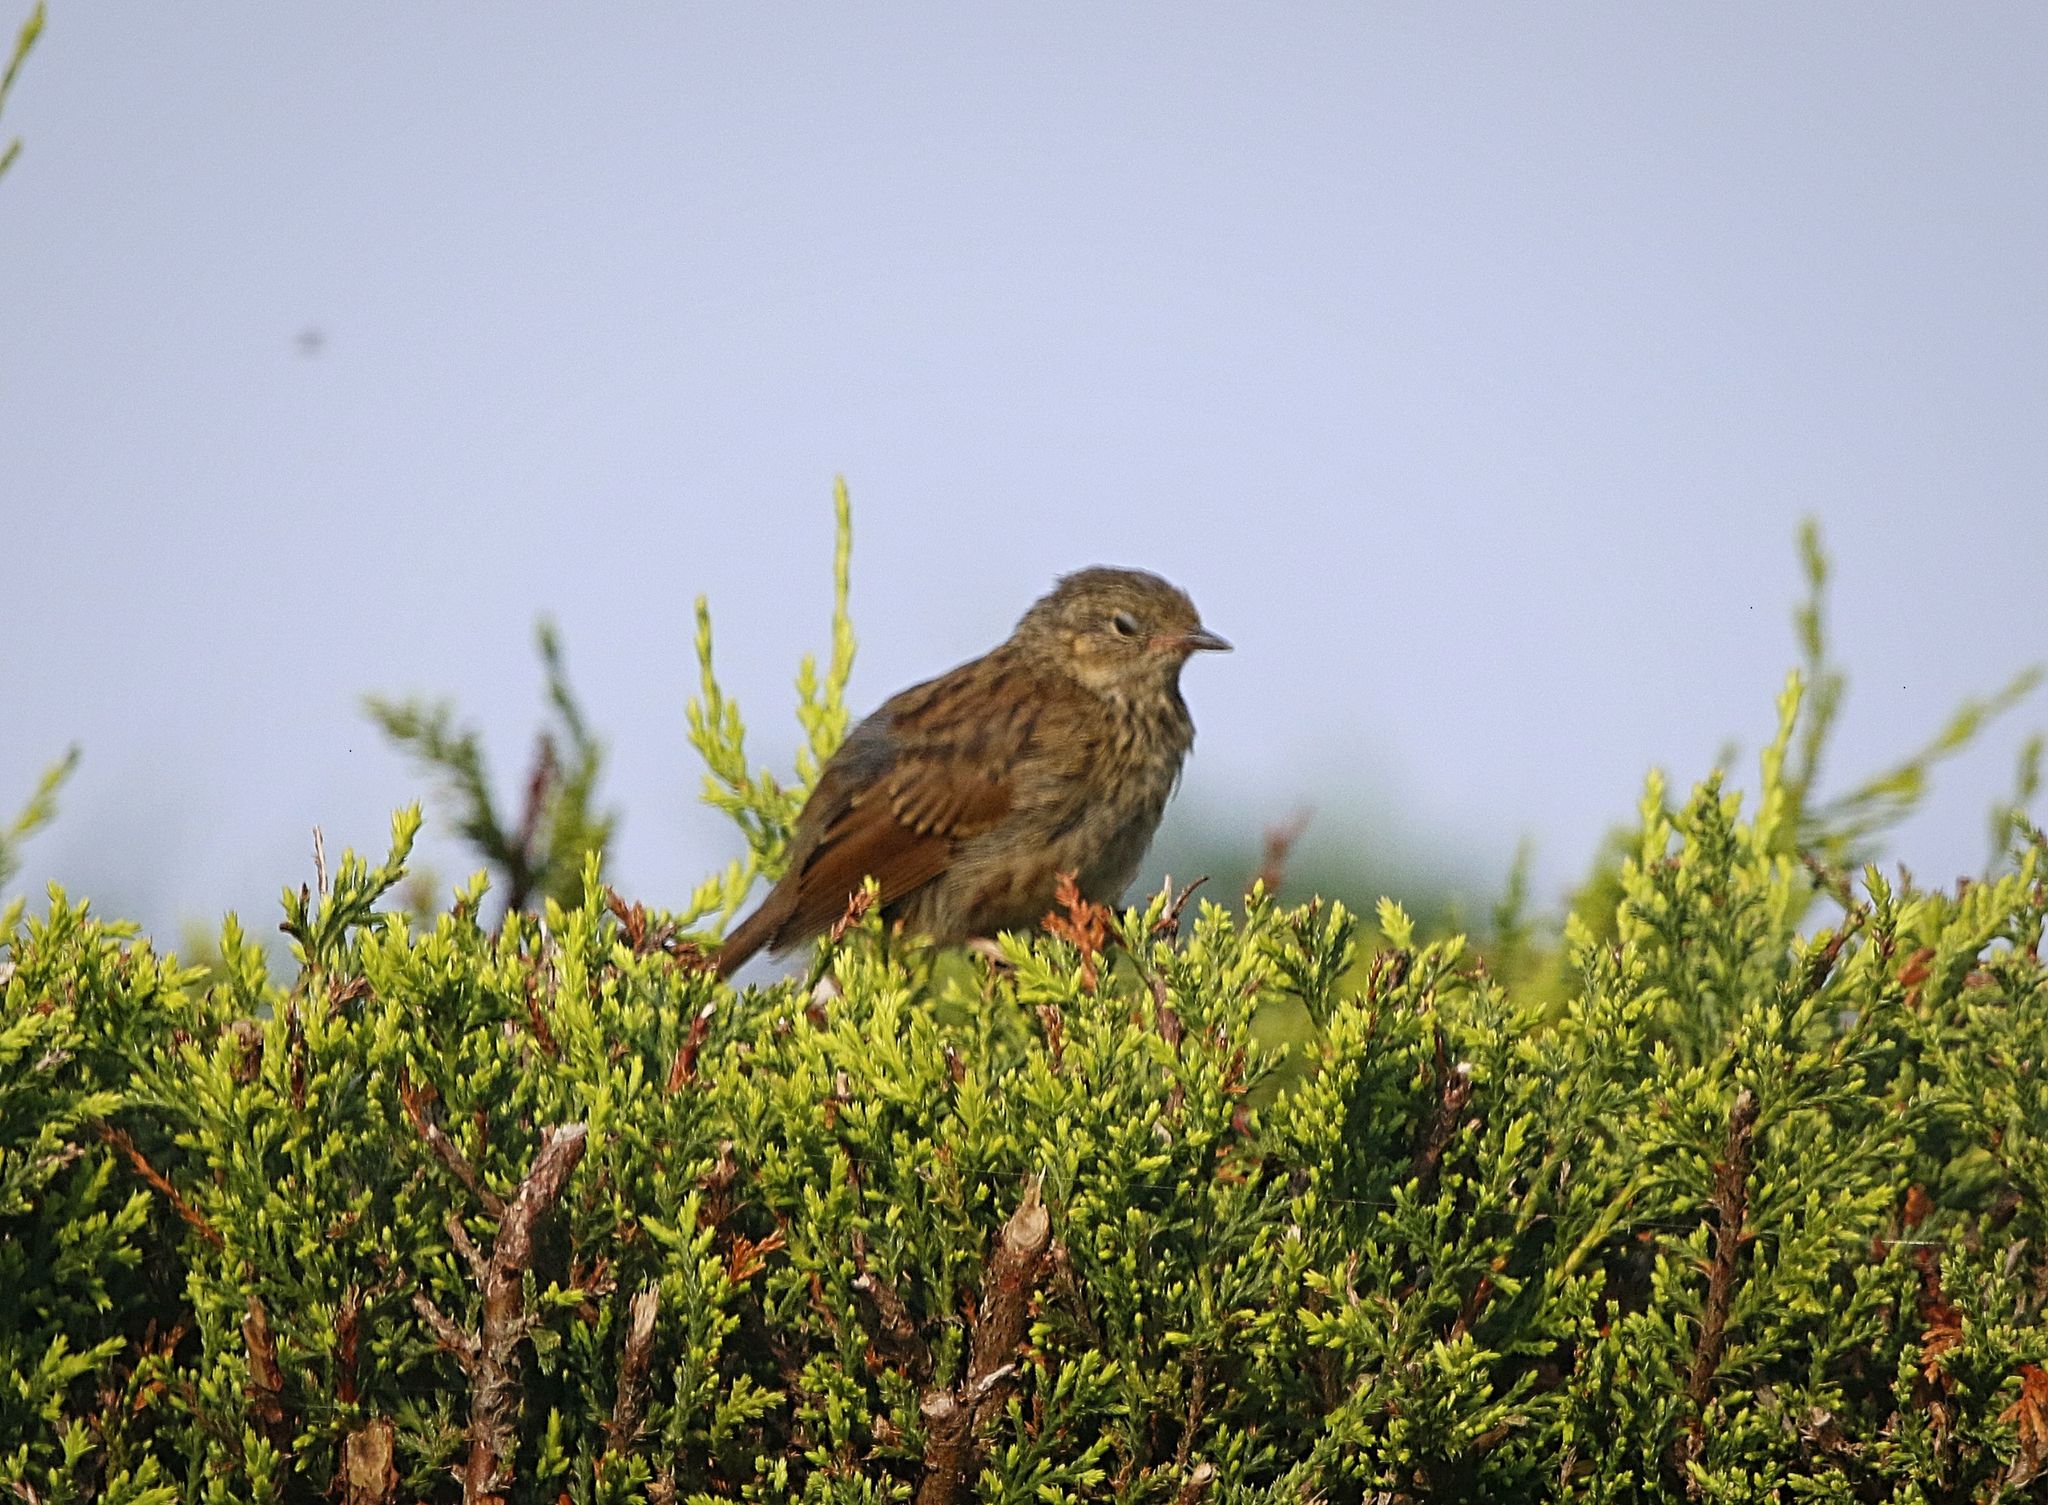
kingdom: Animalia
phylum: Chordata
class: Aves
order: Passeriformes
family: Prunellidae
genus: Prunella
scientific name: Prunella modularis
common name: Dunnock
